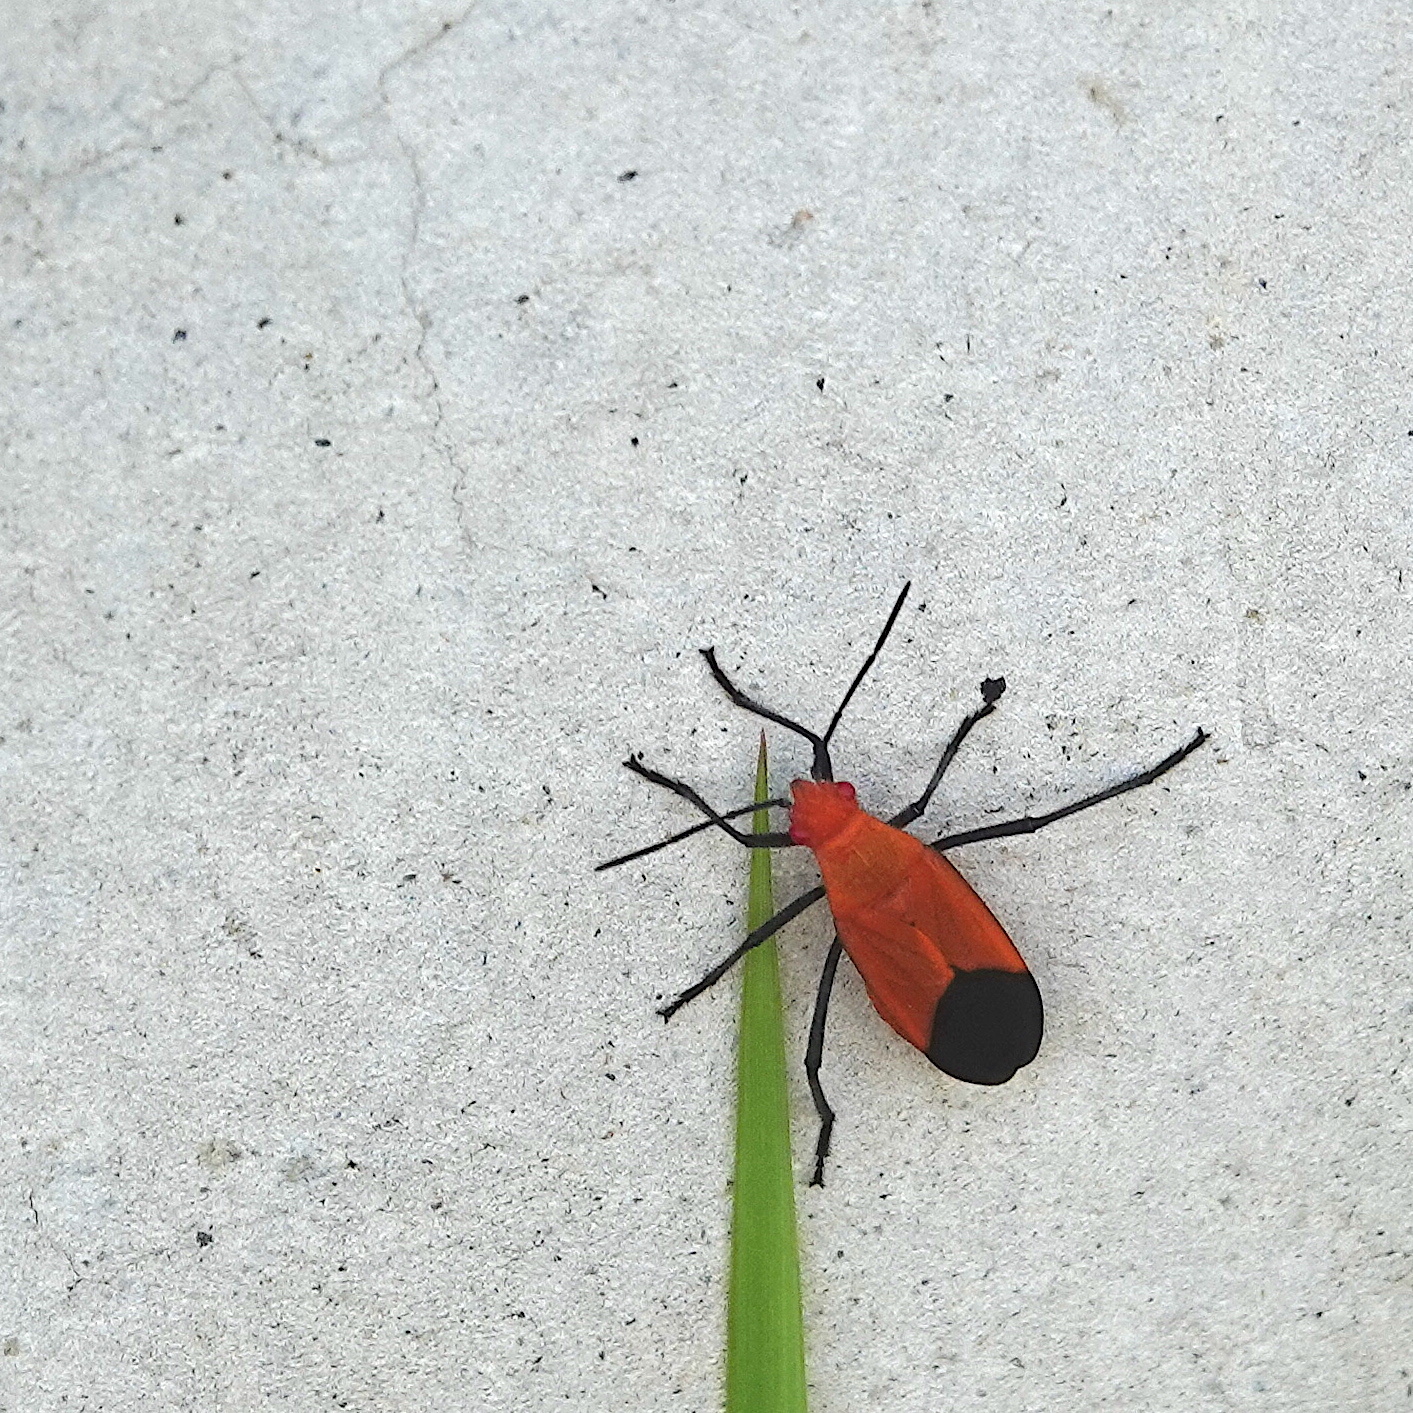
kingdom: Animalia
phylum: Arthropoda
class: Insecta
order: Hemiptera
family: Rhopalidae
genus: Leptocoris
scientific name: Leptocoris augur
